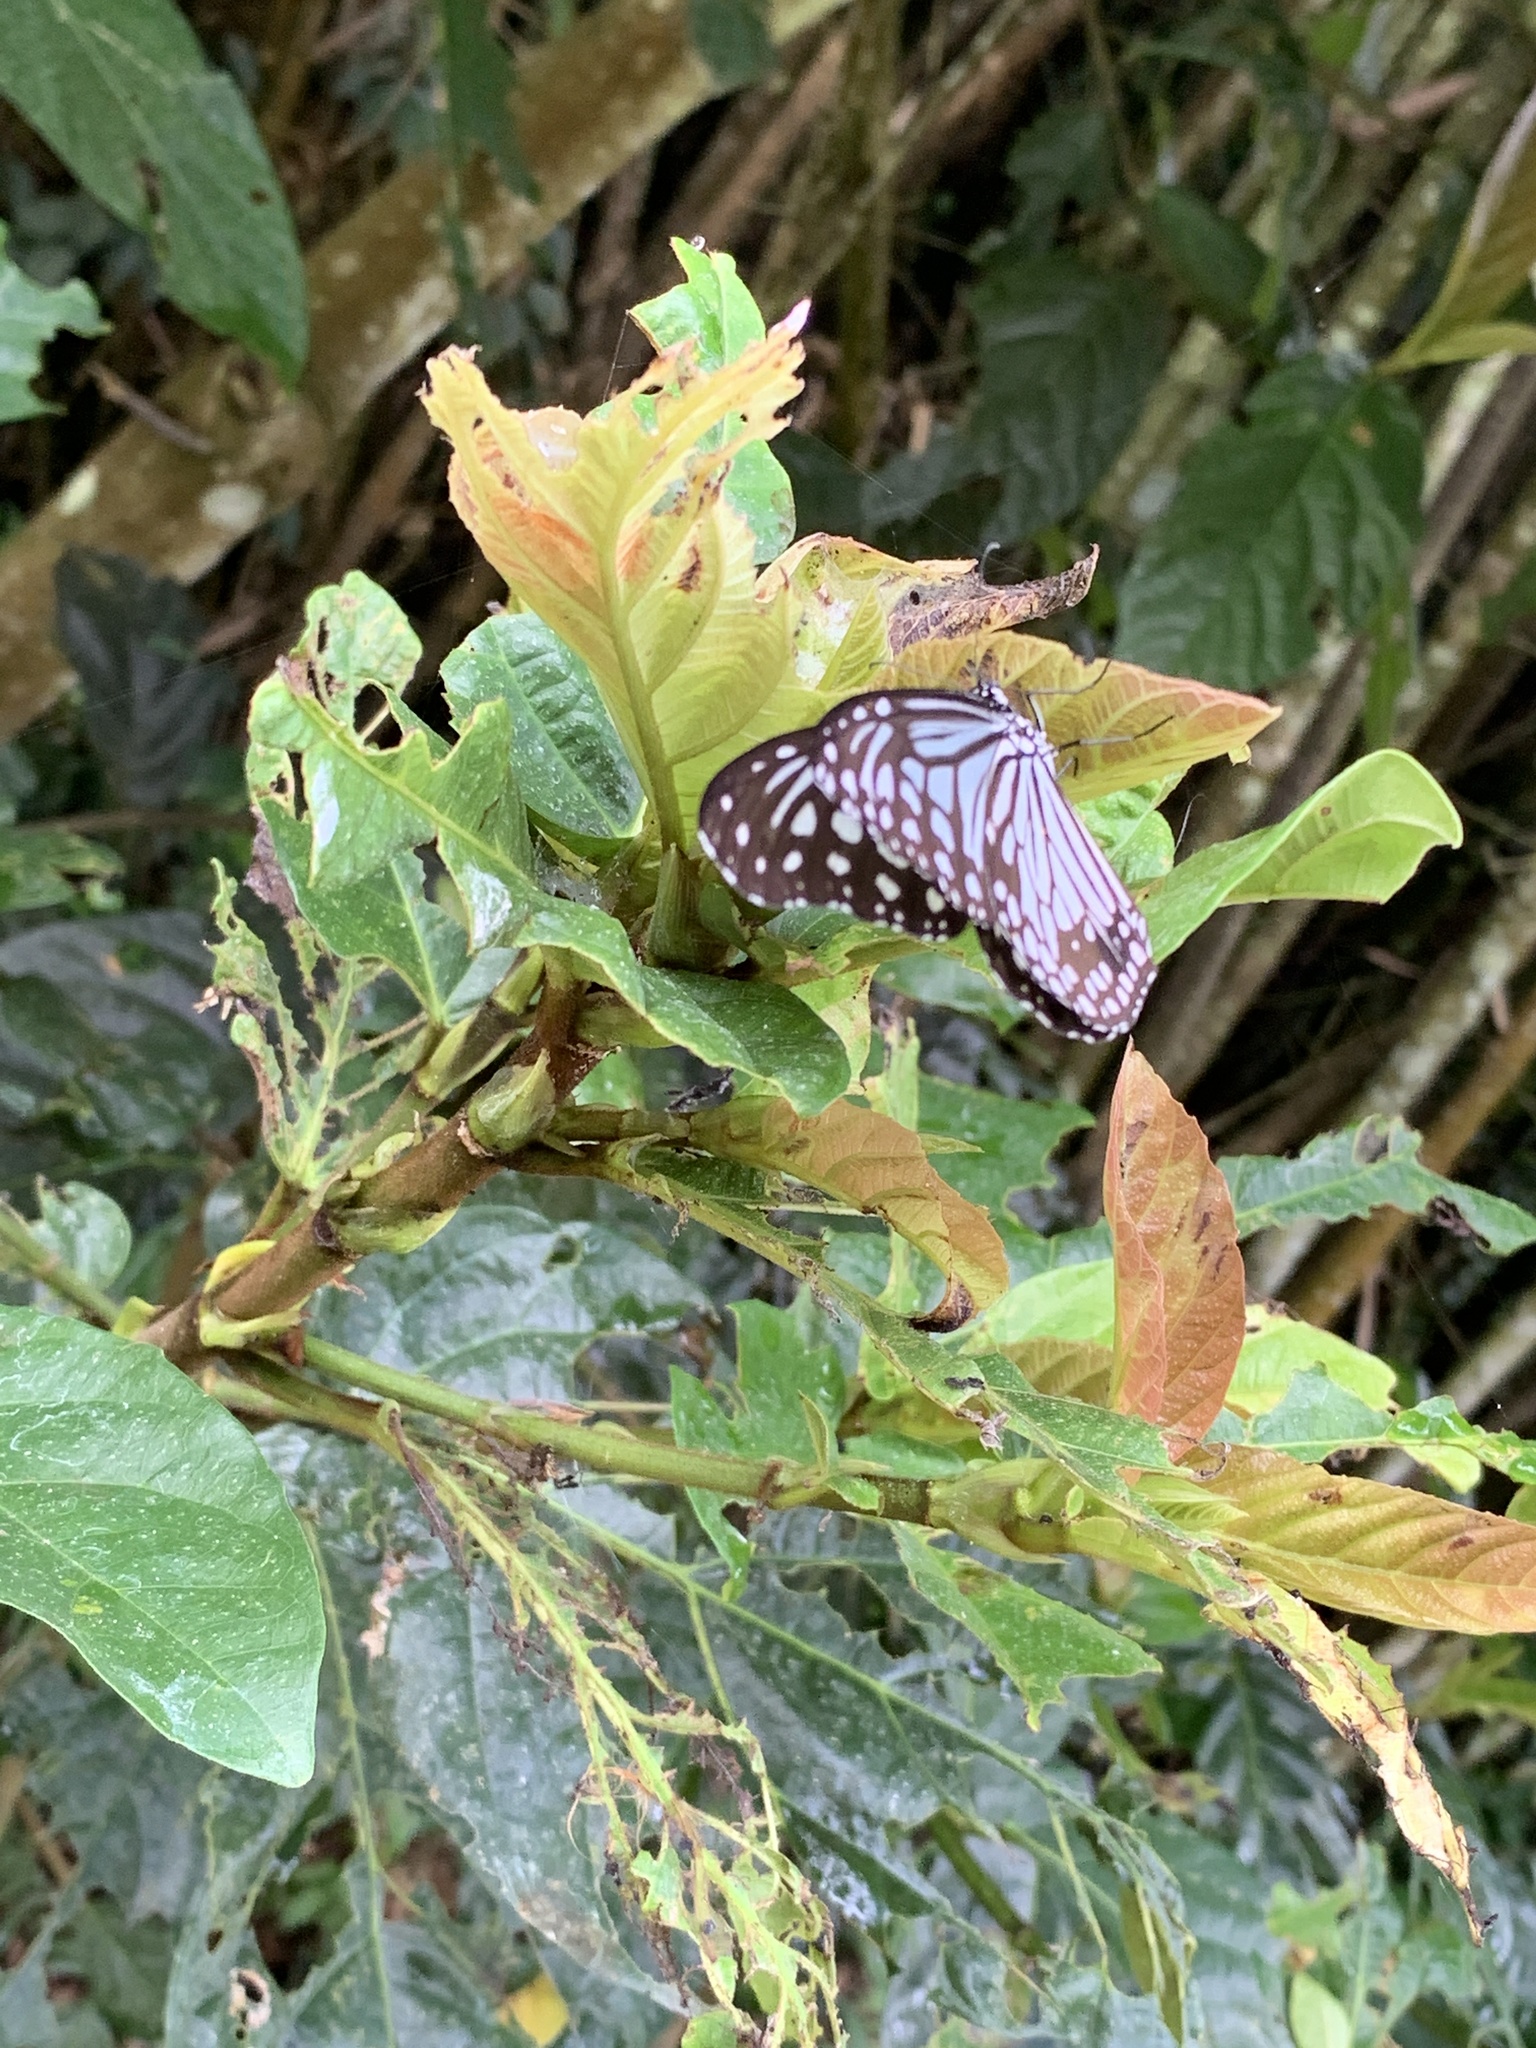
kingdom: Animalia
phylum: Arthropoda
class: Insecta
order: Lepidoptera
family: Nymphalidae
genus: Parantica
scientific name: Parantica aglea
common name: Glassy tiger
